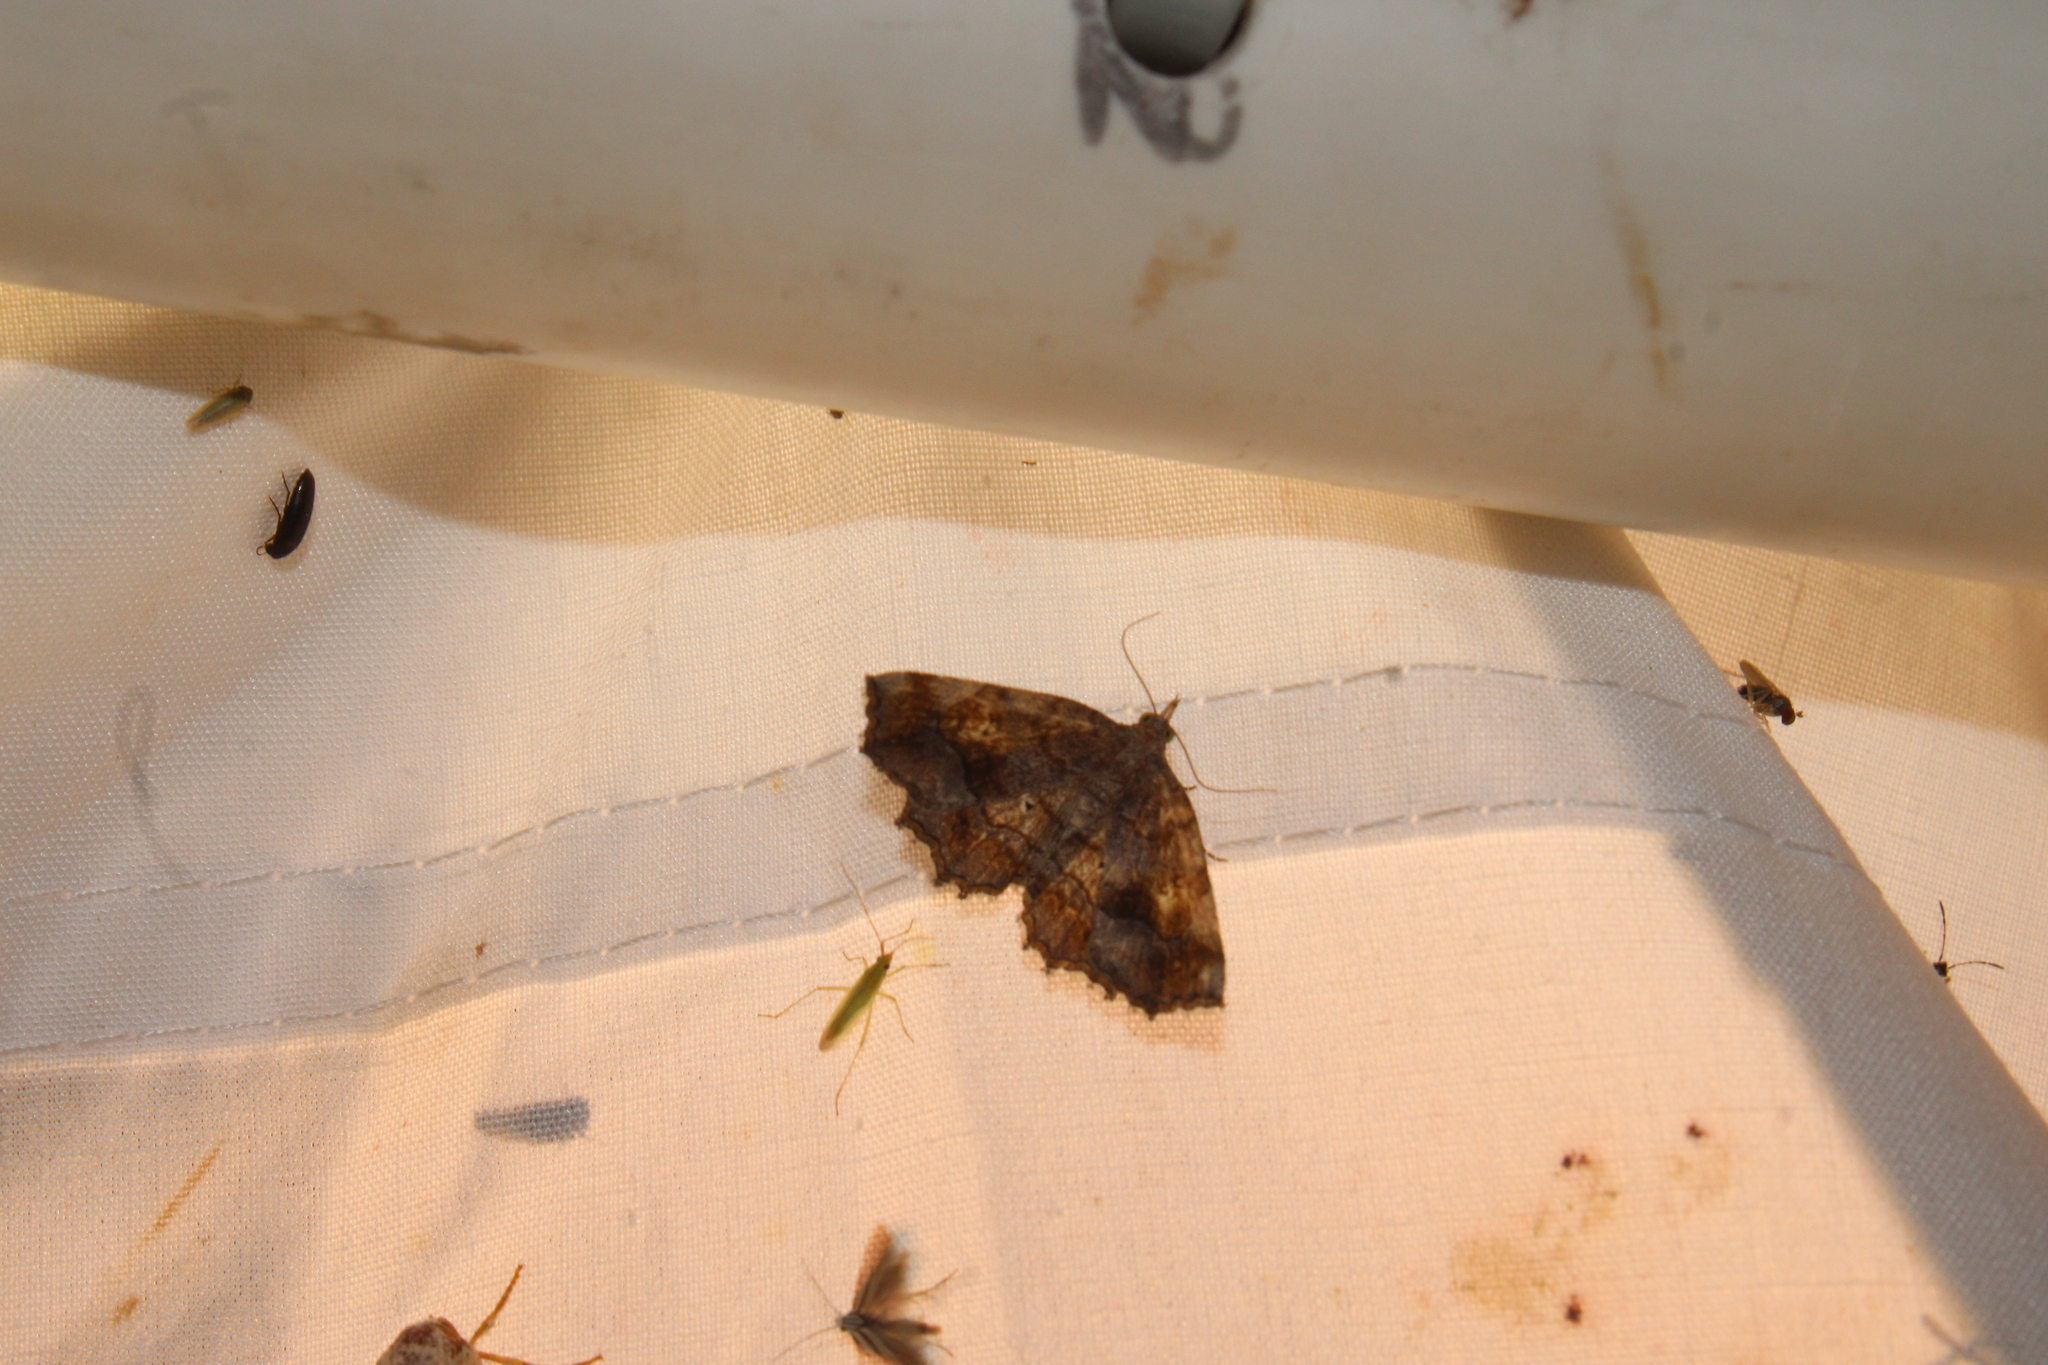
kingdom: Animalia
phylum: Arthropoda
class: Insecta
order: Lepidoptera
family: Erebidae
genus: Pangrapta
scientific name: Pangrapta decoralis
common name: Decorated owlet
